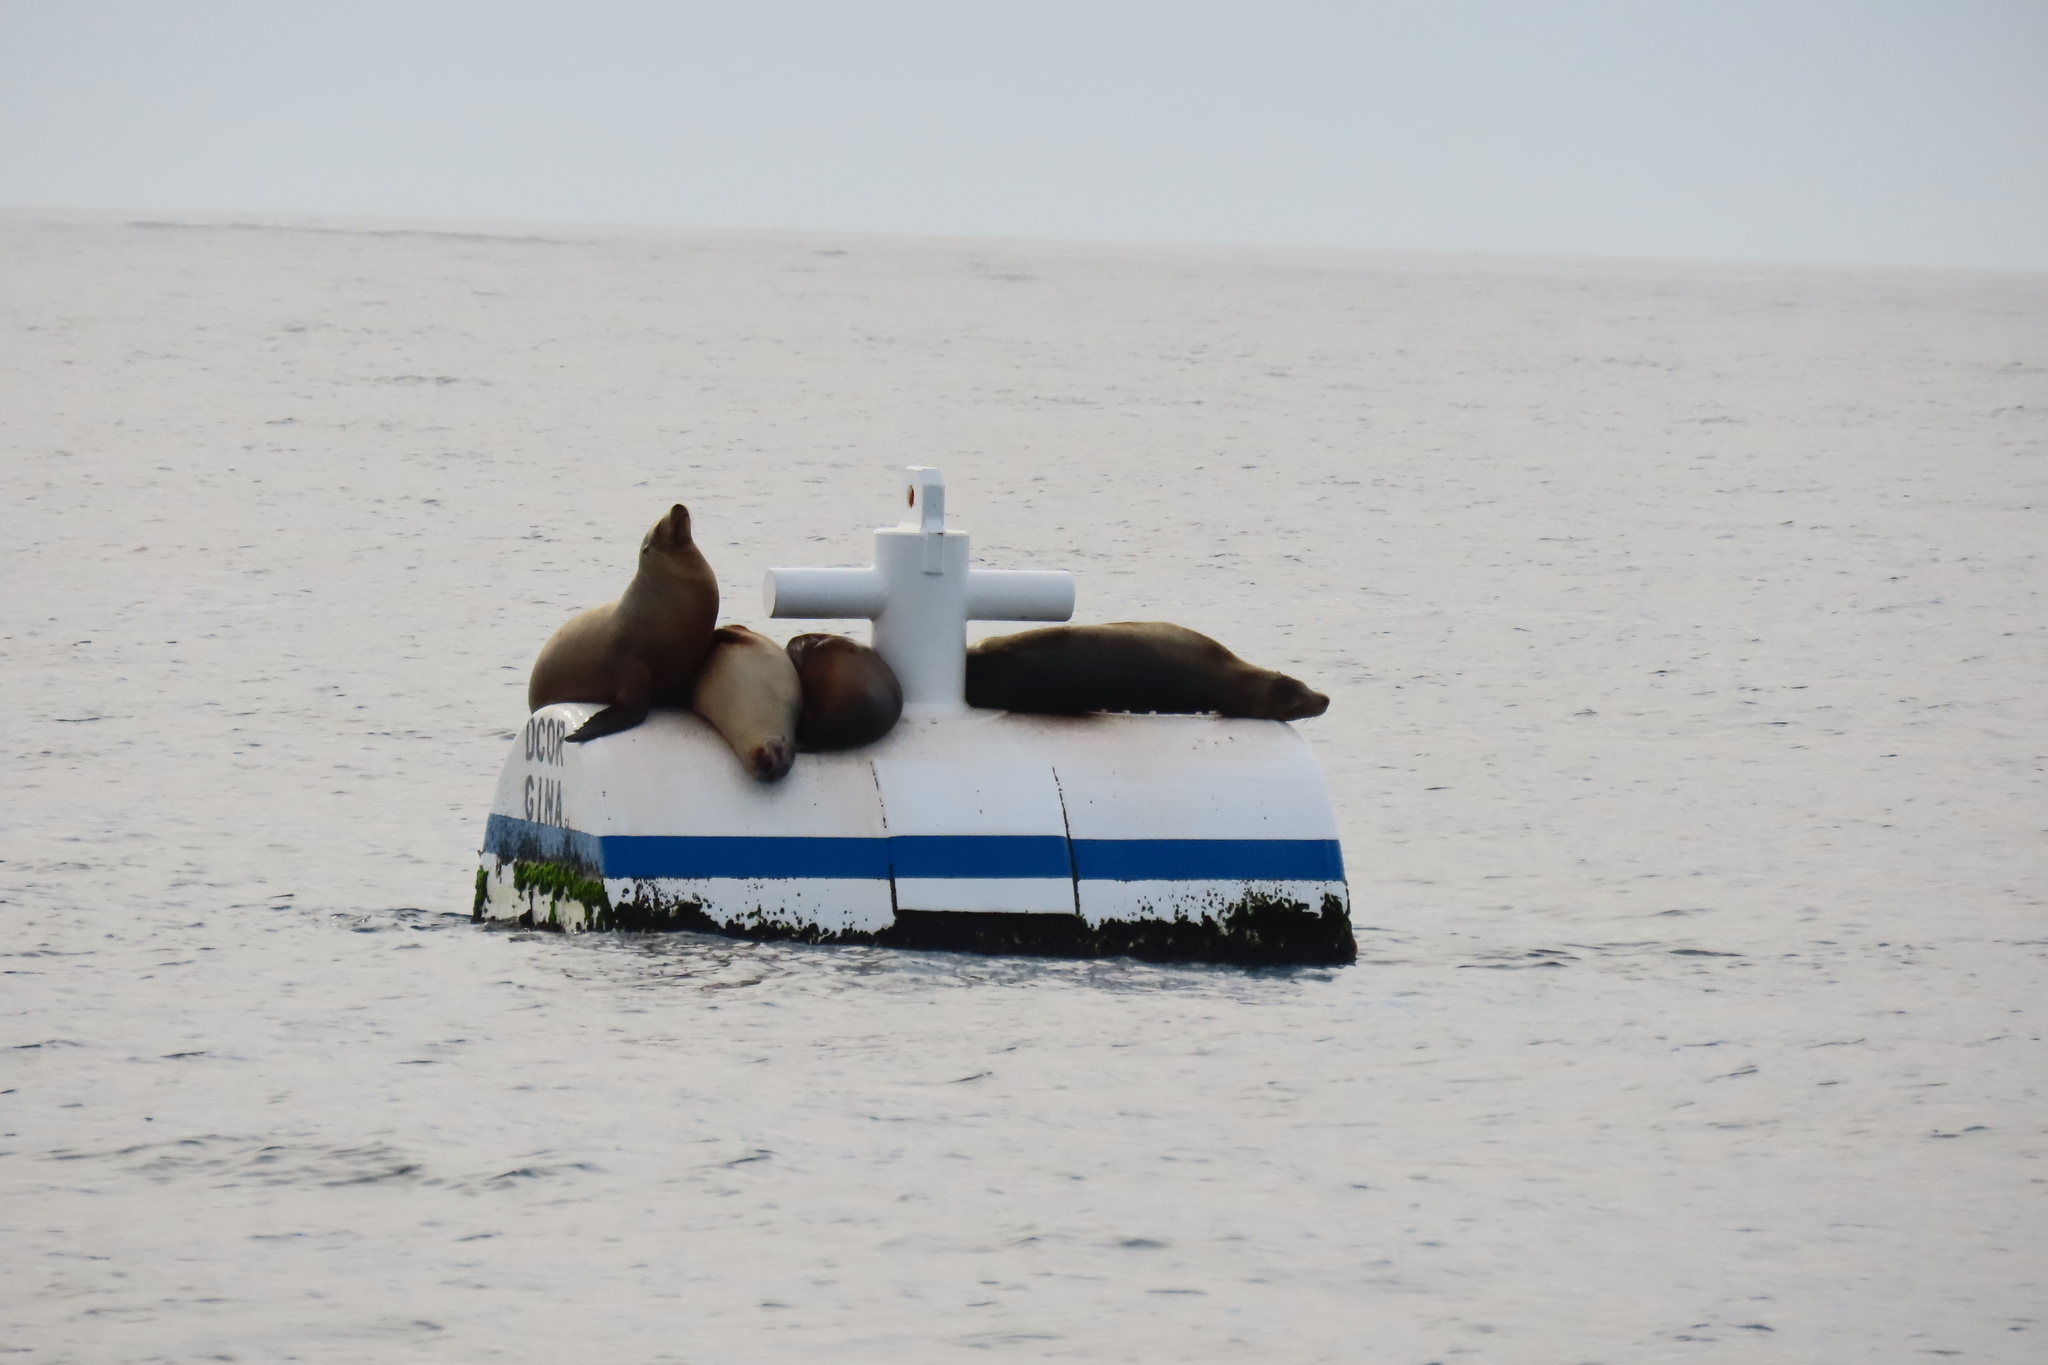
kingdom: Animalia
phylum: Chordata
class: Mammalia
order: Carnivora
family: Otariidae
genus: Zalophus
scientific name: Zalophus californianus
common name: California sea lion
